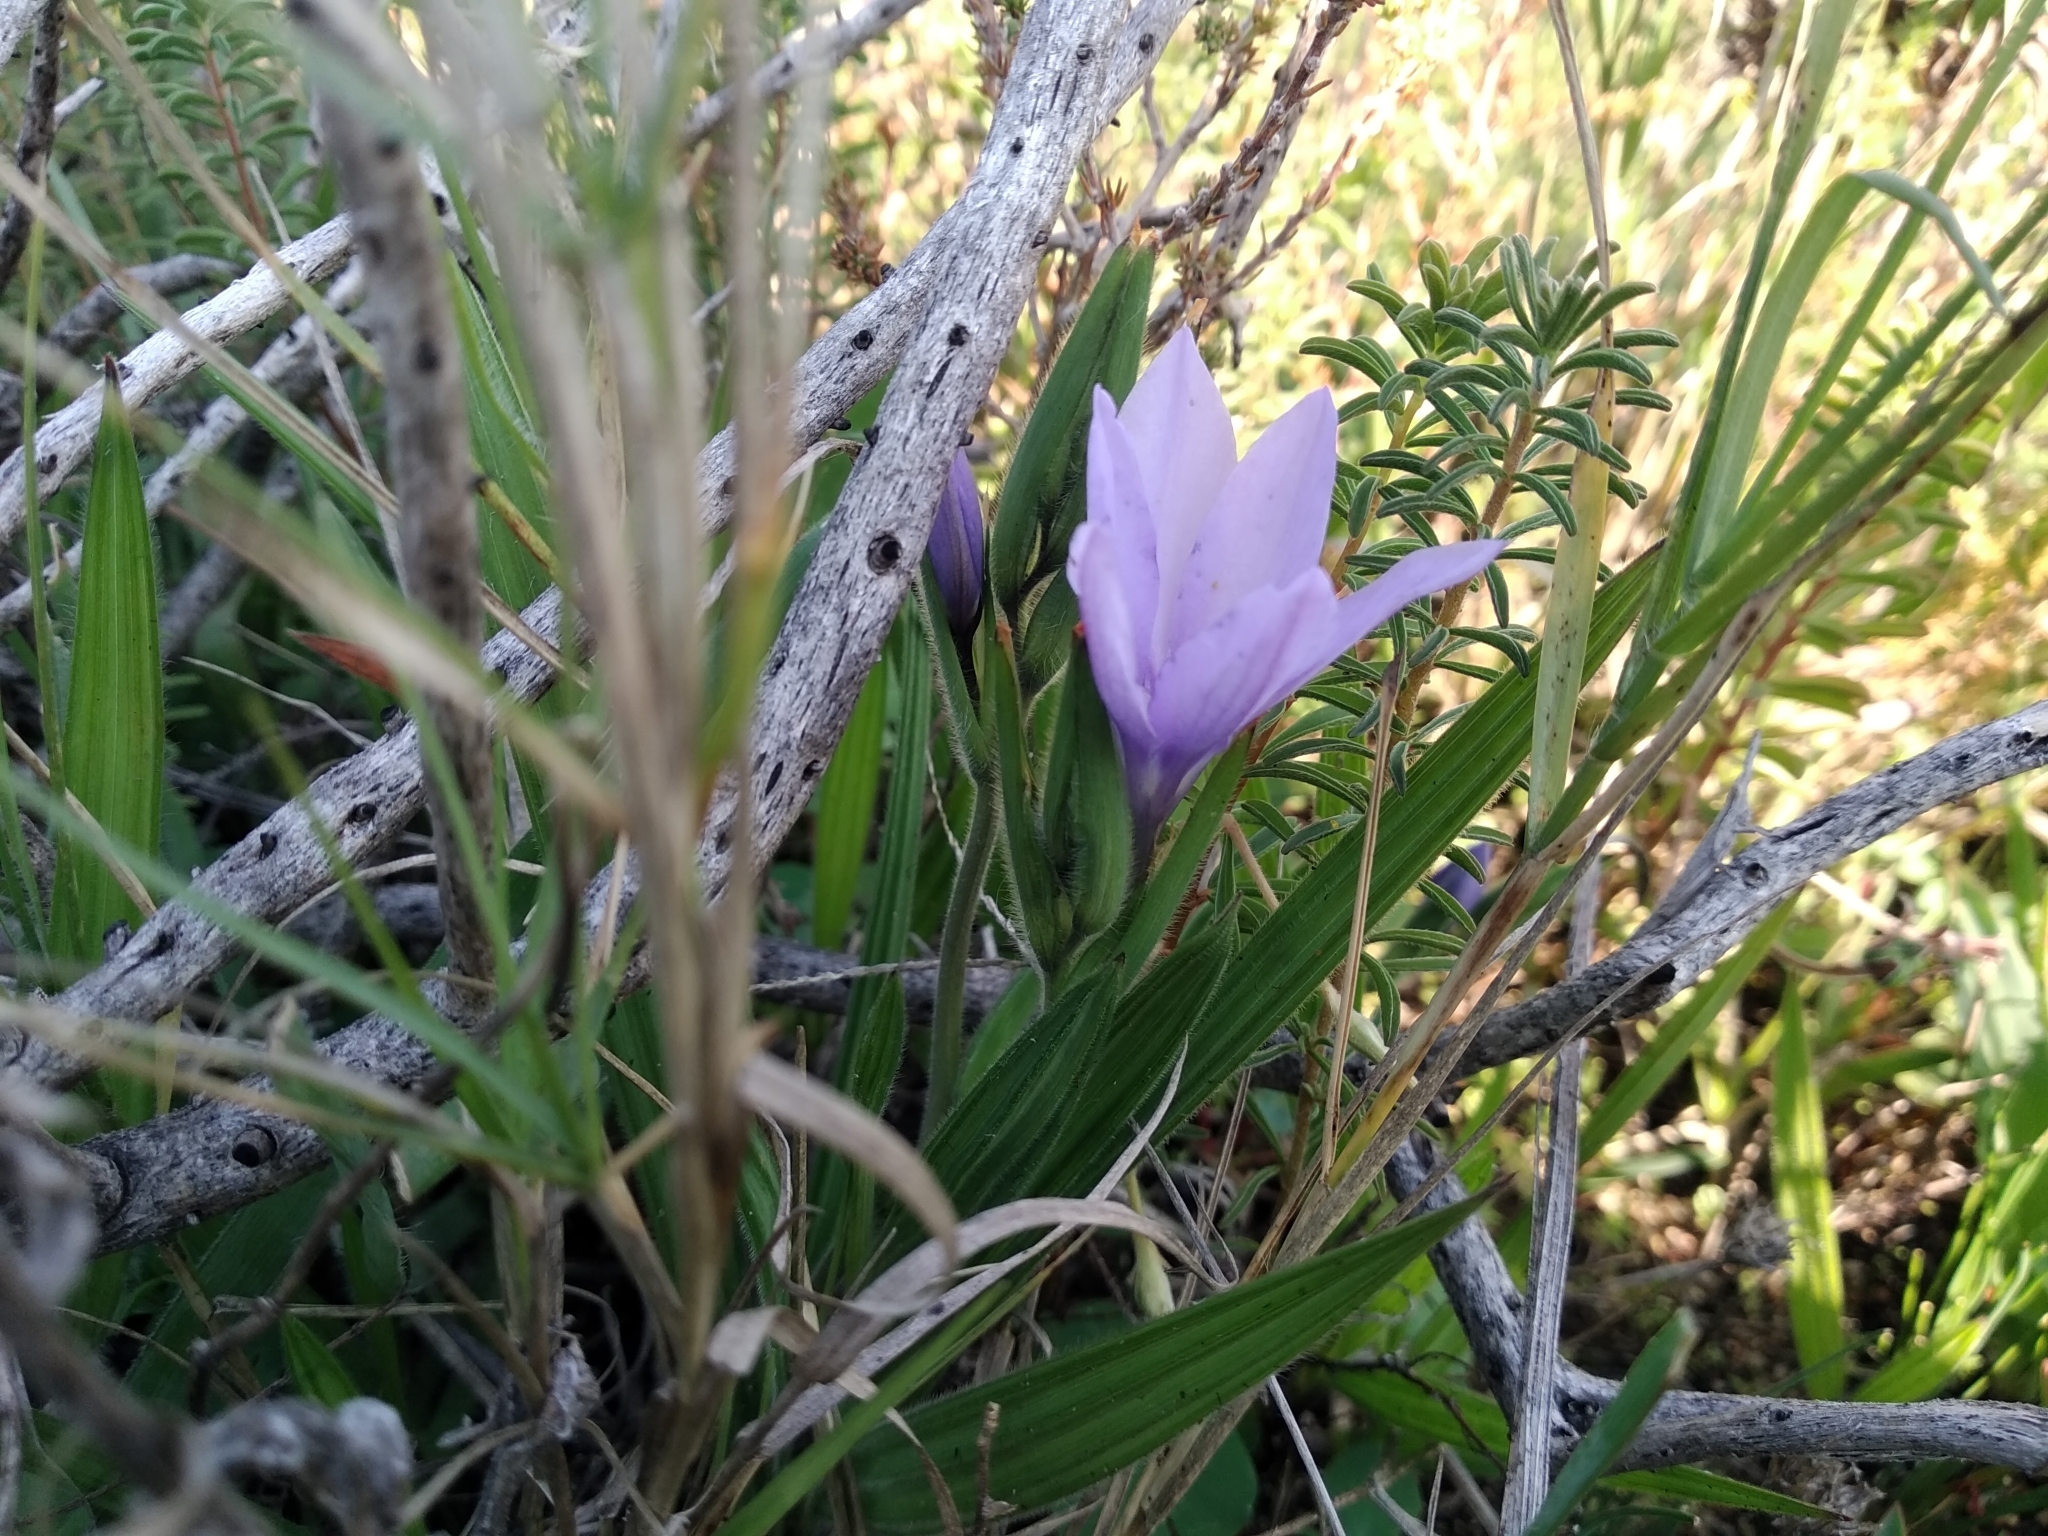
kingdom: Plantae
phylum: Tracheophyta
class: Liliopsida
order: Asparagales
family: Iridaceae
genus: Babiana
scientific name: Babiana villosula
